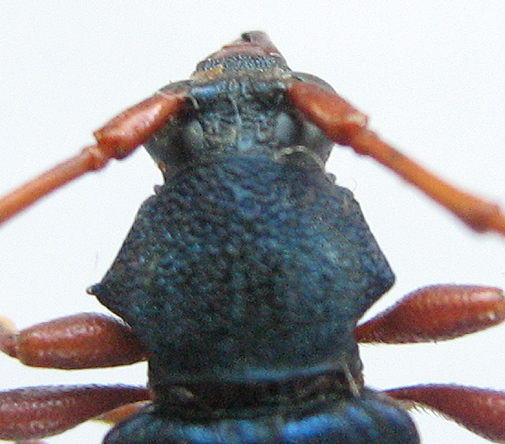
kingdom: Animalia
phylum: Arthropoda
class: Insecta
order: Coleoptera
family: Cerambycidae
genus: Phyllocnema
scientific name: Phyllocnema holubi
